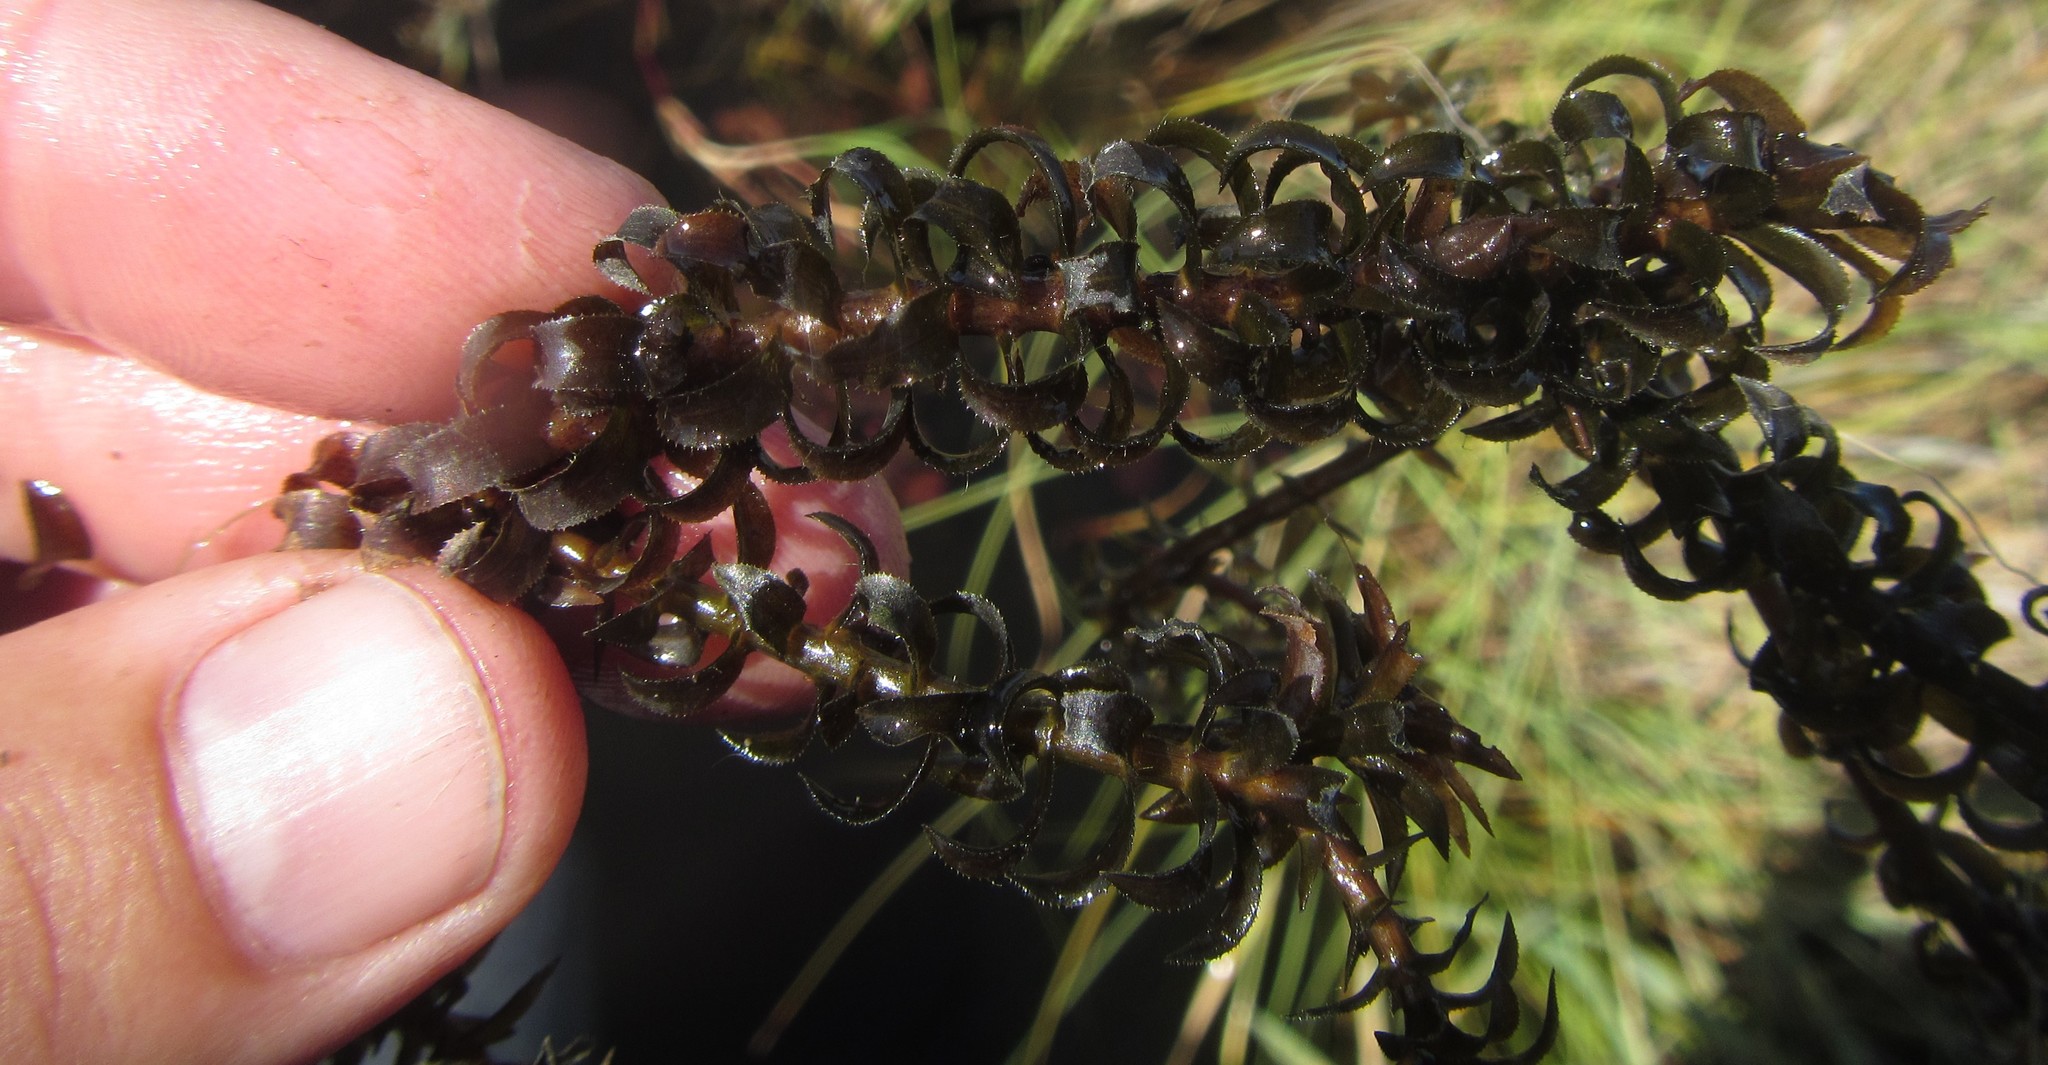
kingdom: Plantae
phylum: Tracheophyta
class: Liliopsida
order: Alismatales
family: Hydrocharitaceae
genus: Lagarosiphon
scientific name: Lagarosiphon ilicifolius
